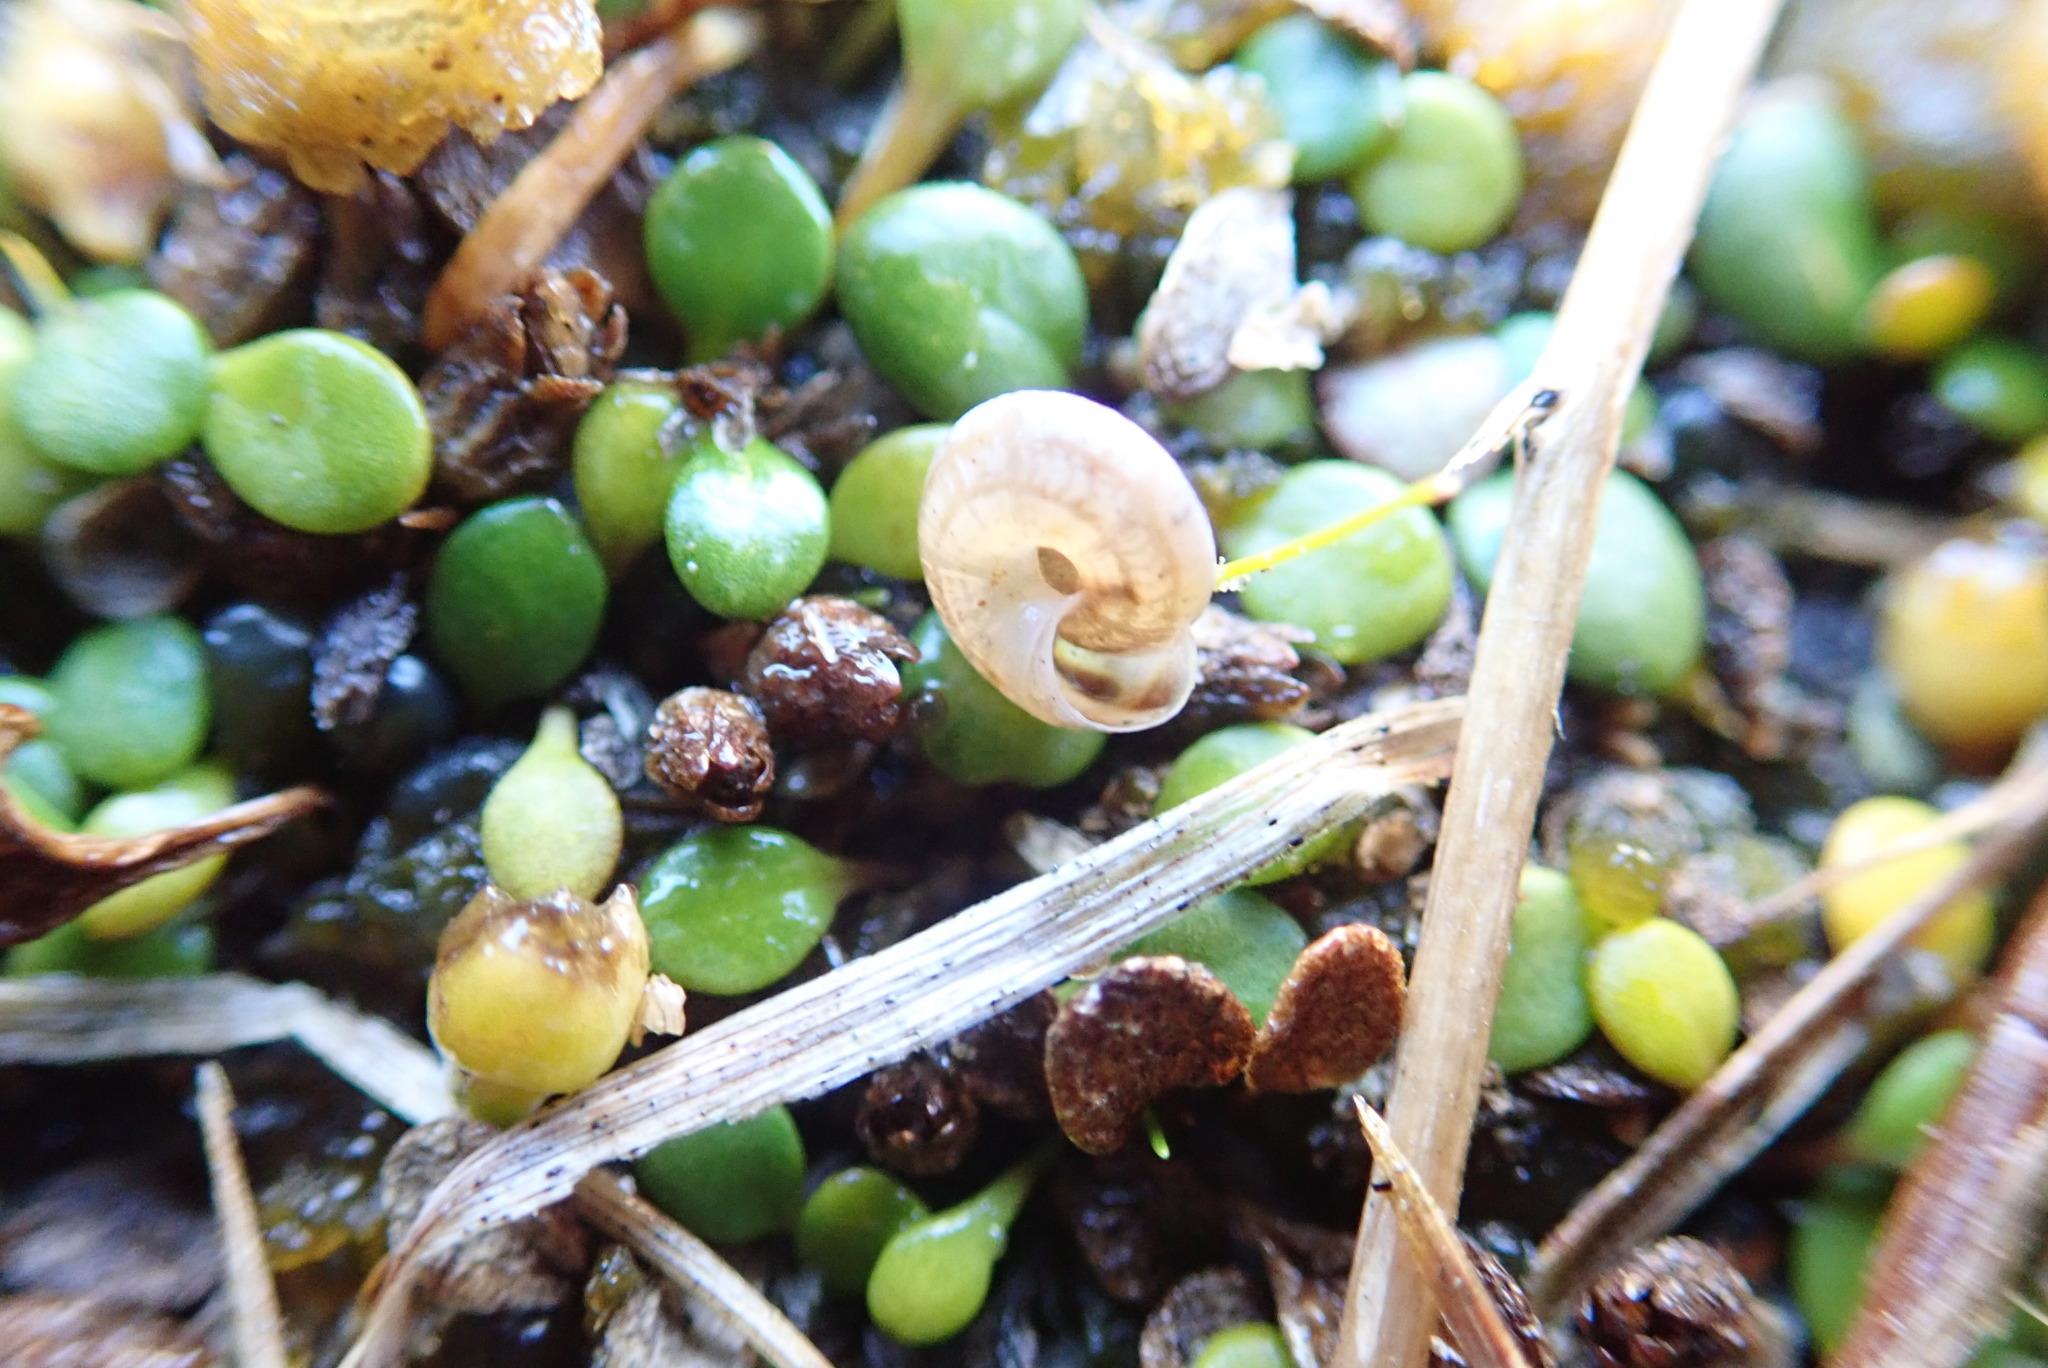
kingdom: Animalia
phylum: Mollusca
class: Gastropoda
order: Stylommatophora
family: Geomitridae
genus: Xeroplexa
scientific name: Xeroplexa intersecta
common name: Wrinkled snail
